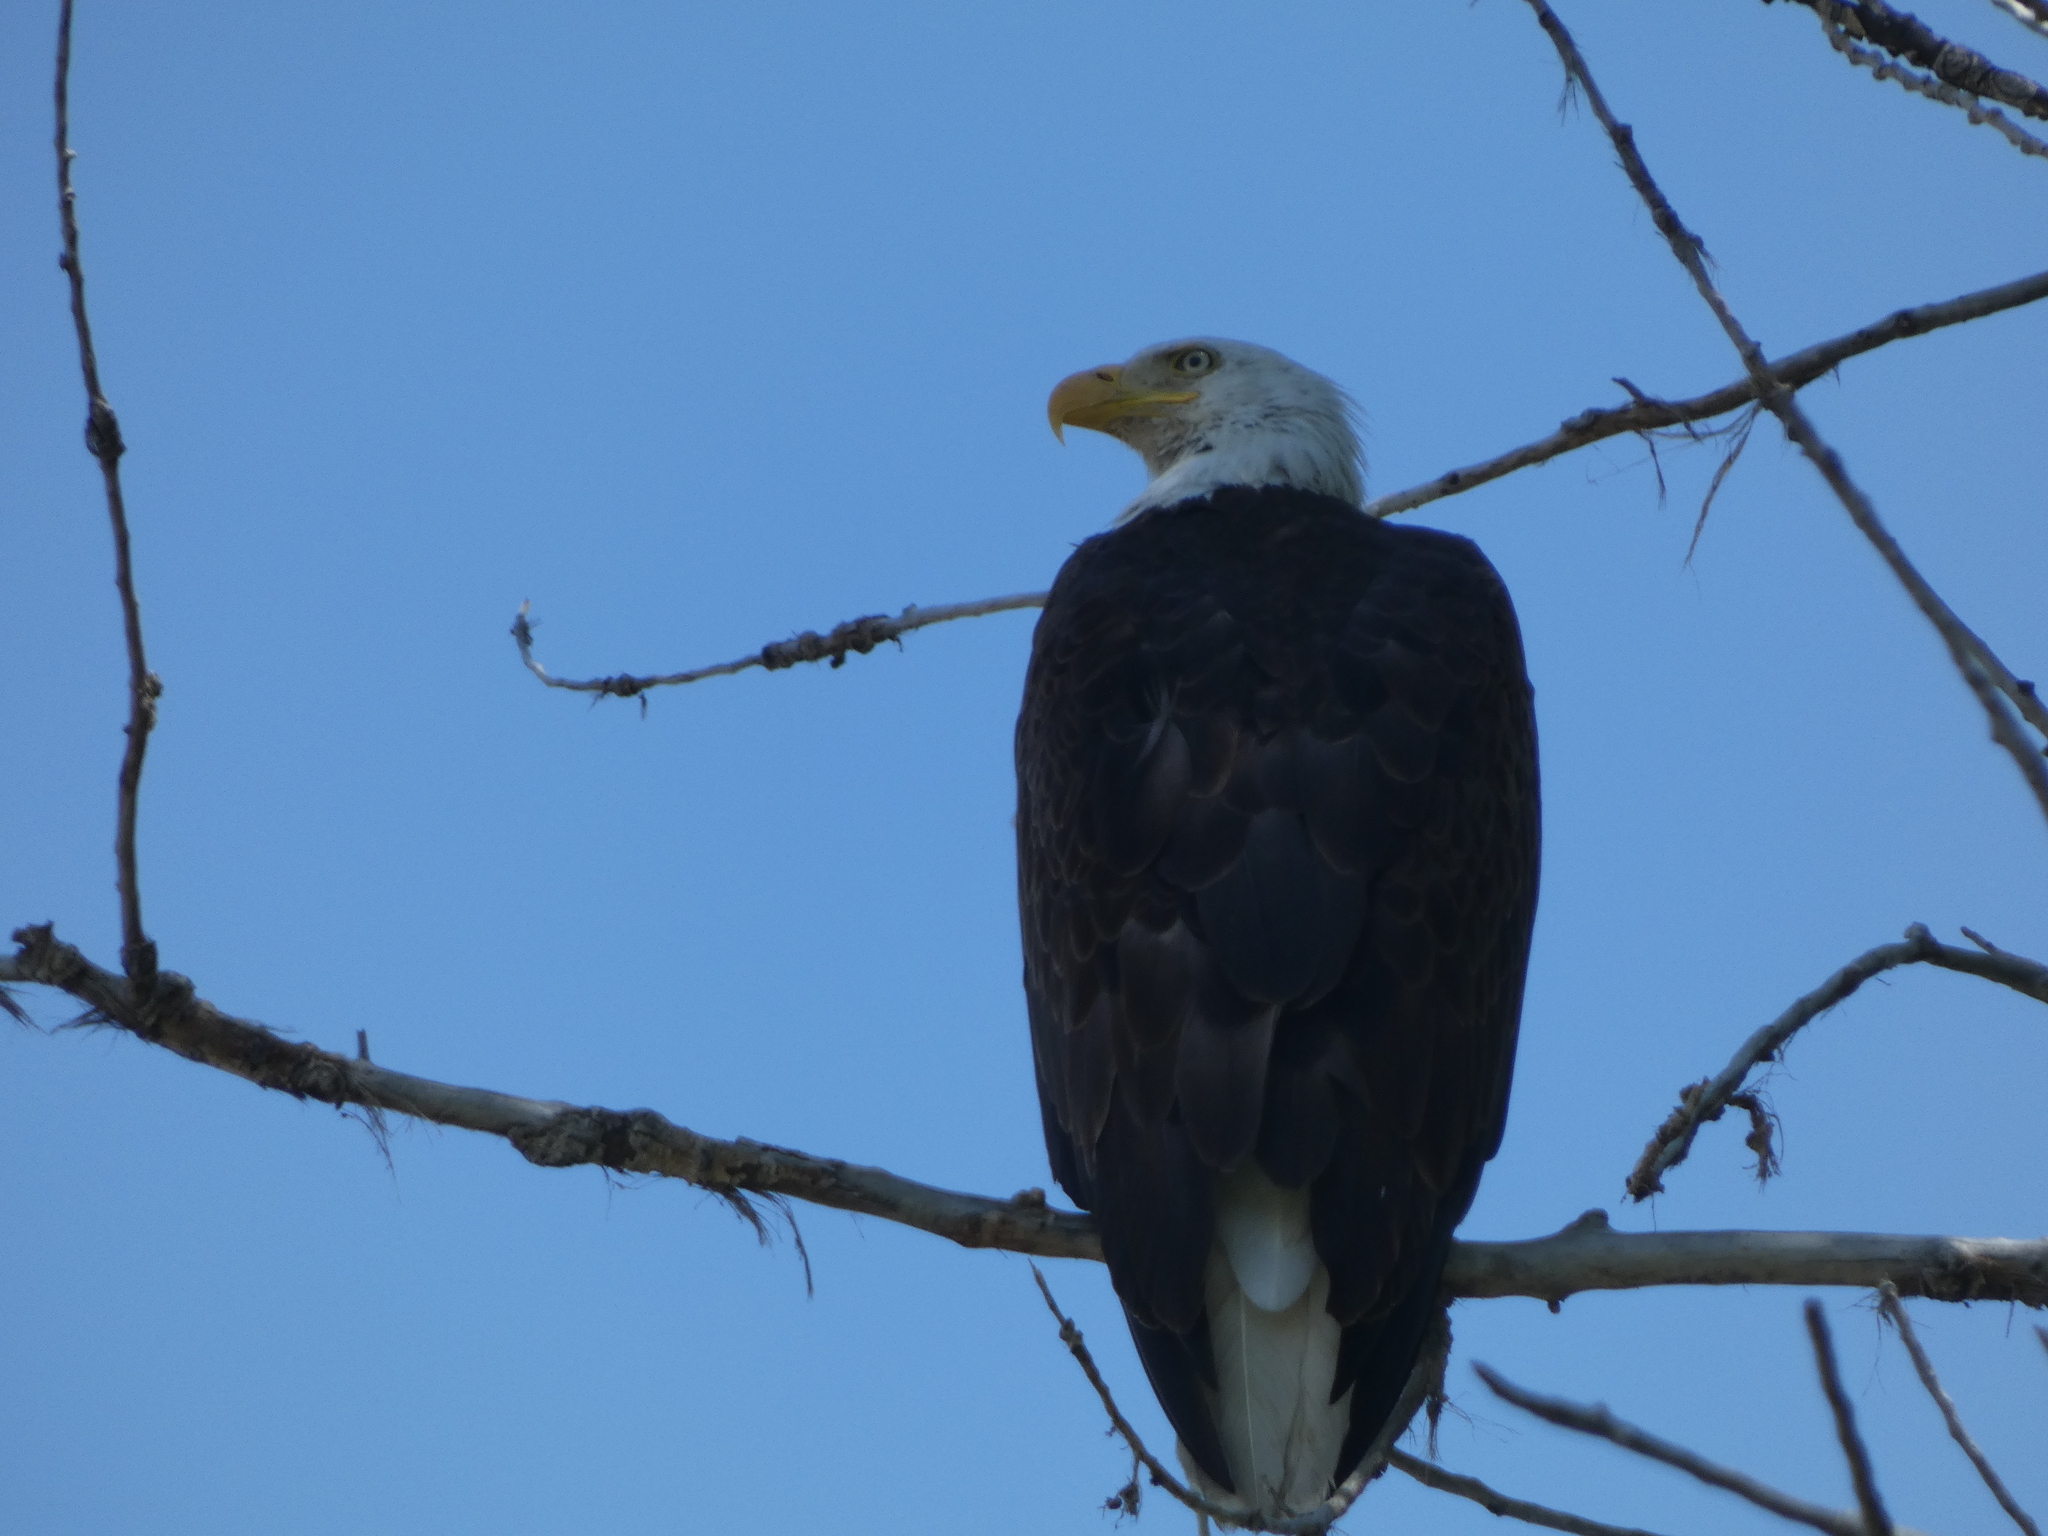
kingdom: Animalia
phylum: Chordata
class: Aves
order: Accipitriformes
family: Accipitridae
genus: Haliaeetus
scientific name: Haliaeetus leucocephalus
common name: Bald eagle
